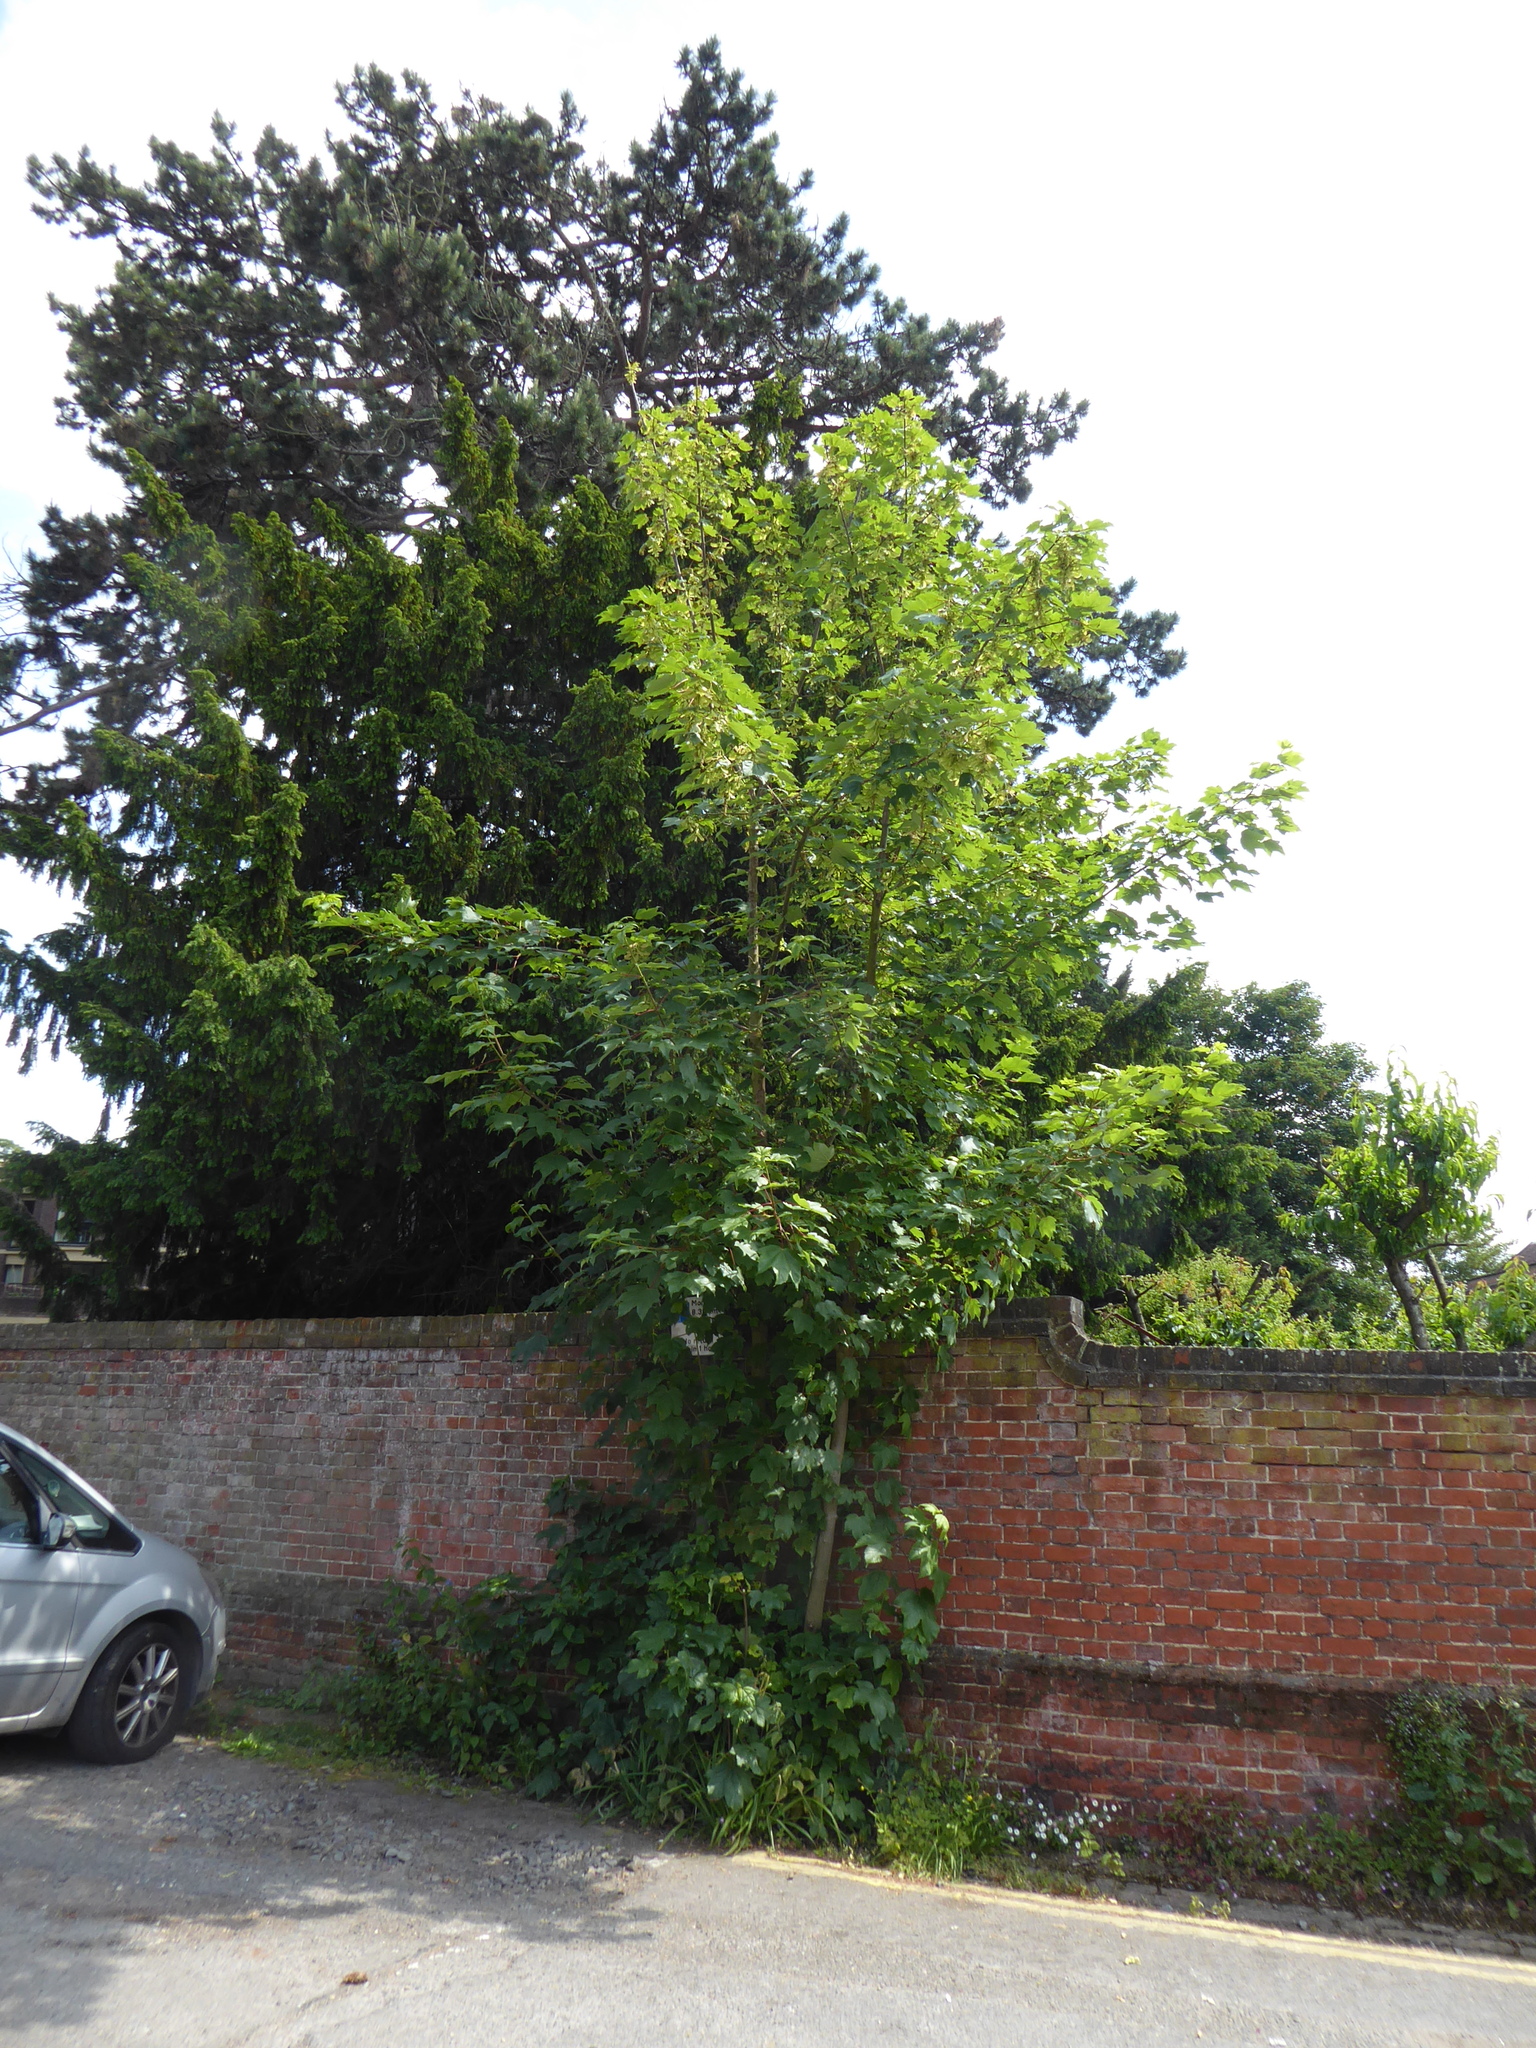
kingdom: Plantae
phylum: Tracheophyta
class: Magnoliopsida
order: Sapindales
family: Sapindaceae
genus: Acer
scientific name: Acer pseudoplatanus
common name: Sycamore
